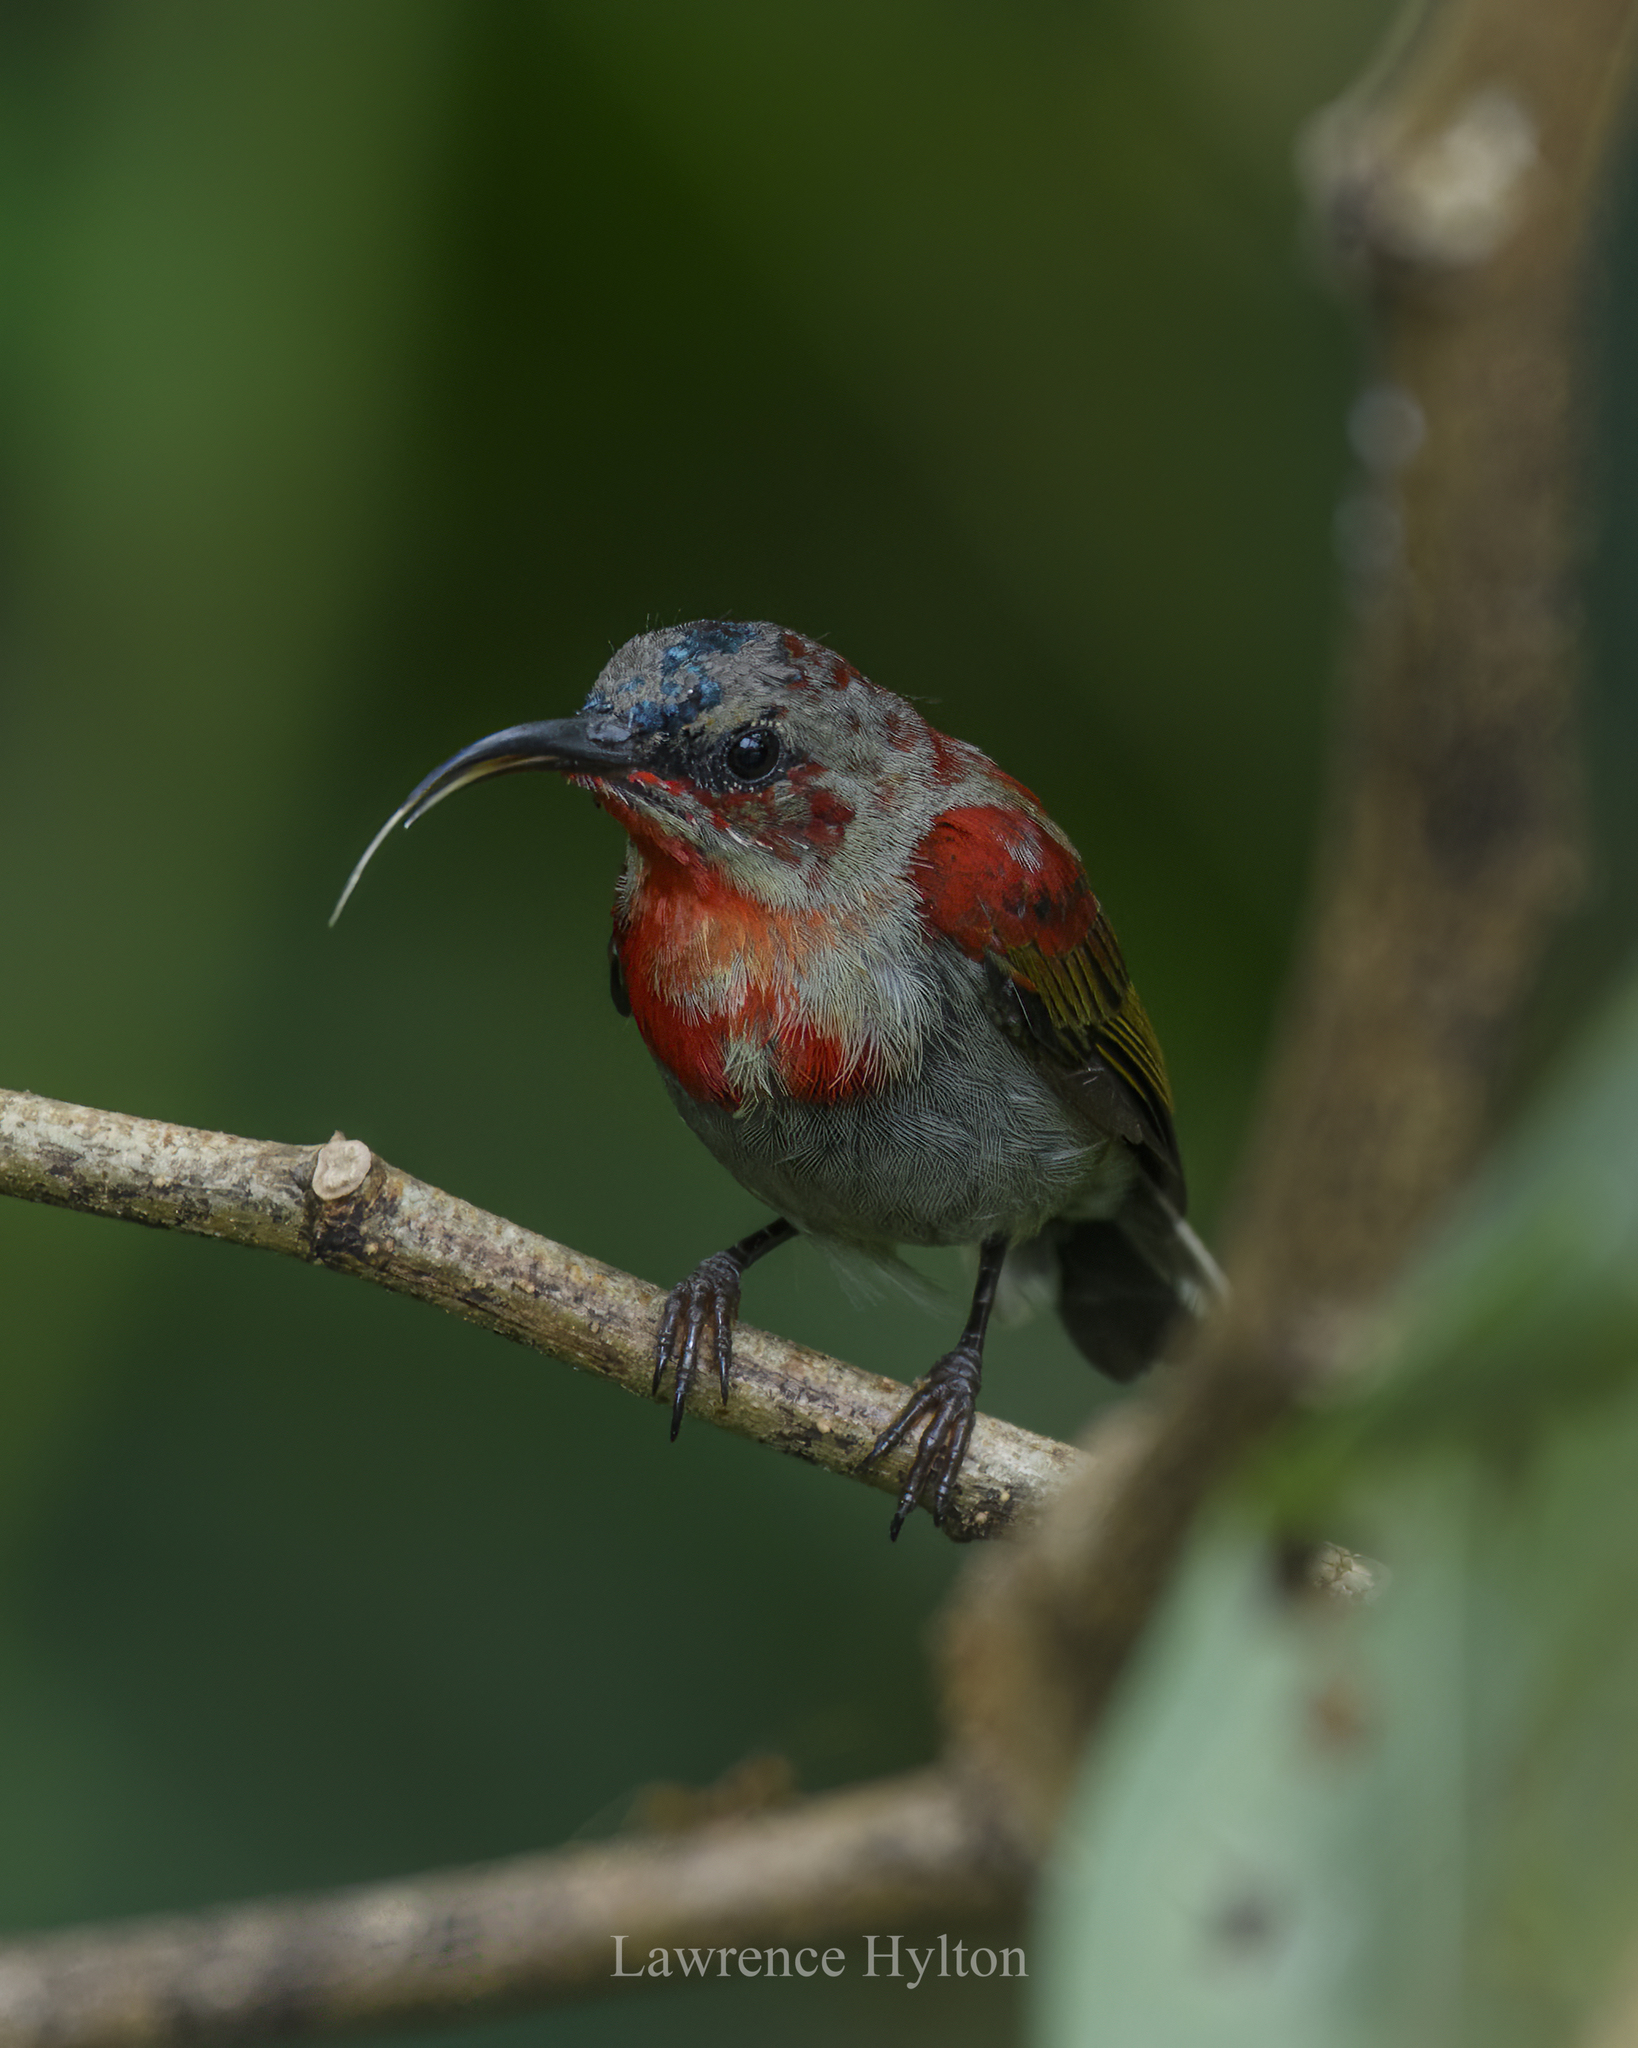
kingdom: Animalia
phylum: Chordata
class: Aves
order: Passeriformes
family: Nectariniidae
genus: Aethopyga
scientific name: Aethopyga siparaja
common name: Crimson sunbird
